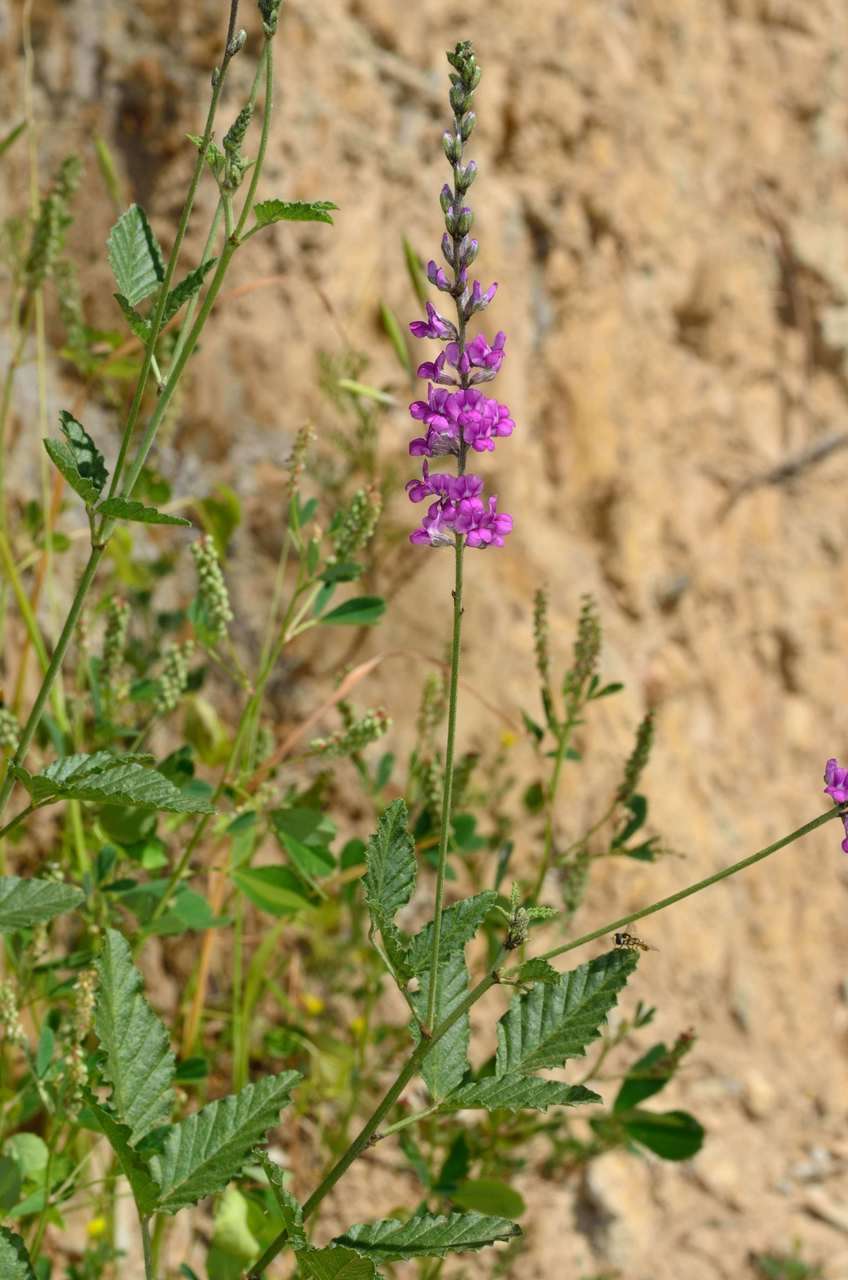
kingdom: Plantae
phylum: Tracheophyta
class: Magnoliopsida
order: Fabales
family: Fabaceae
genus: Cullen
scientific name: Cullen australasicum
